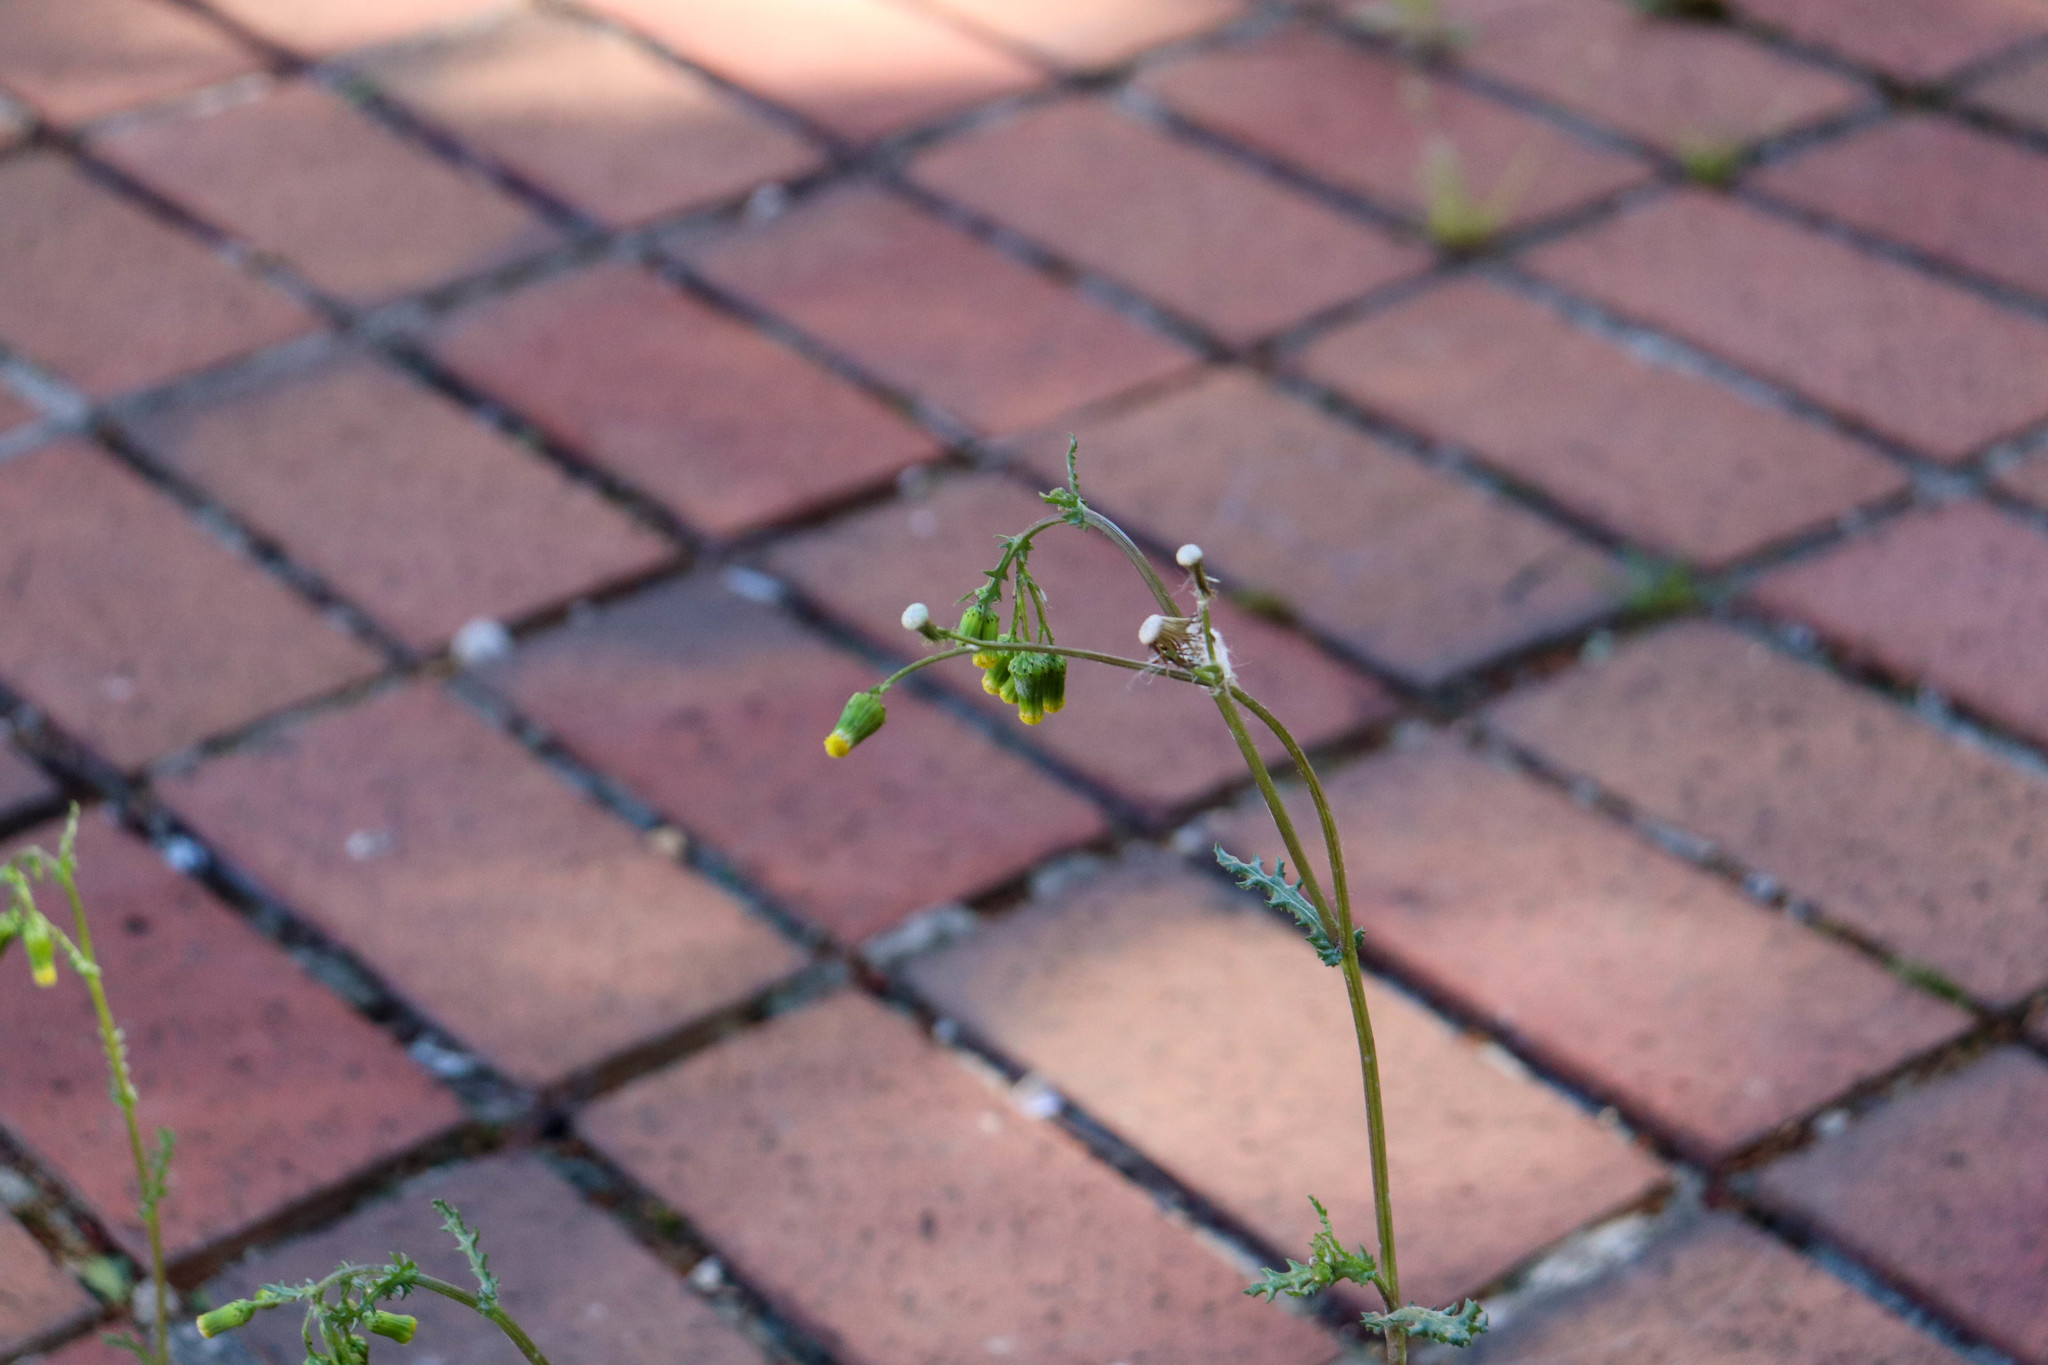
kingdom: Plantae
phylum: Tracheophyta
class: Magnoliopsida
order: Asterales
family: Asteraceae
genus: Senecio
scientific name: Senecio vulgaris
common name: Old-man-in-the-spring
